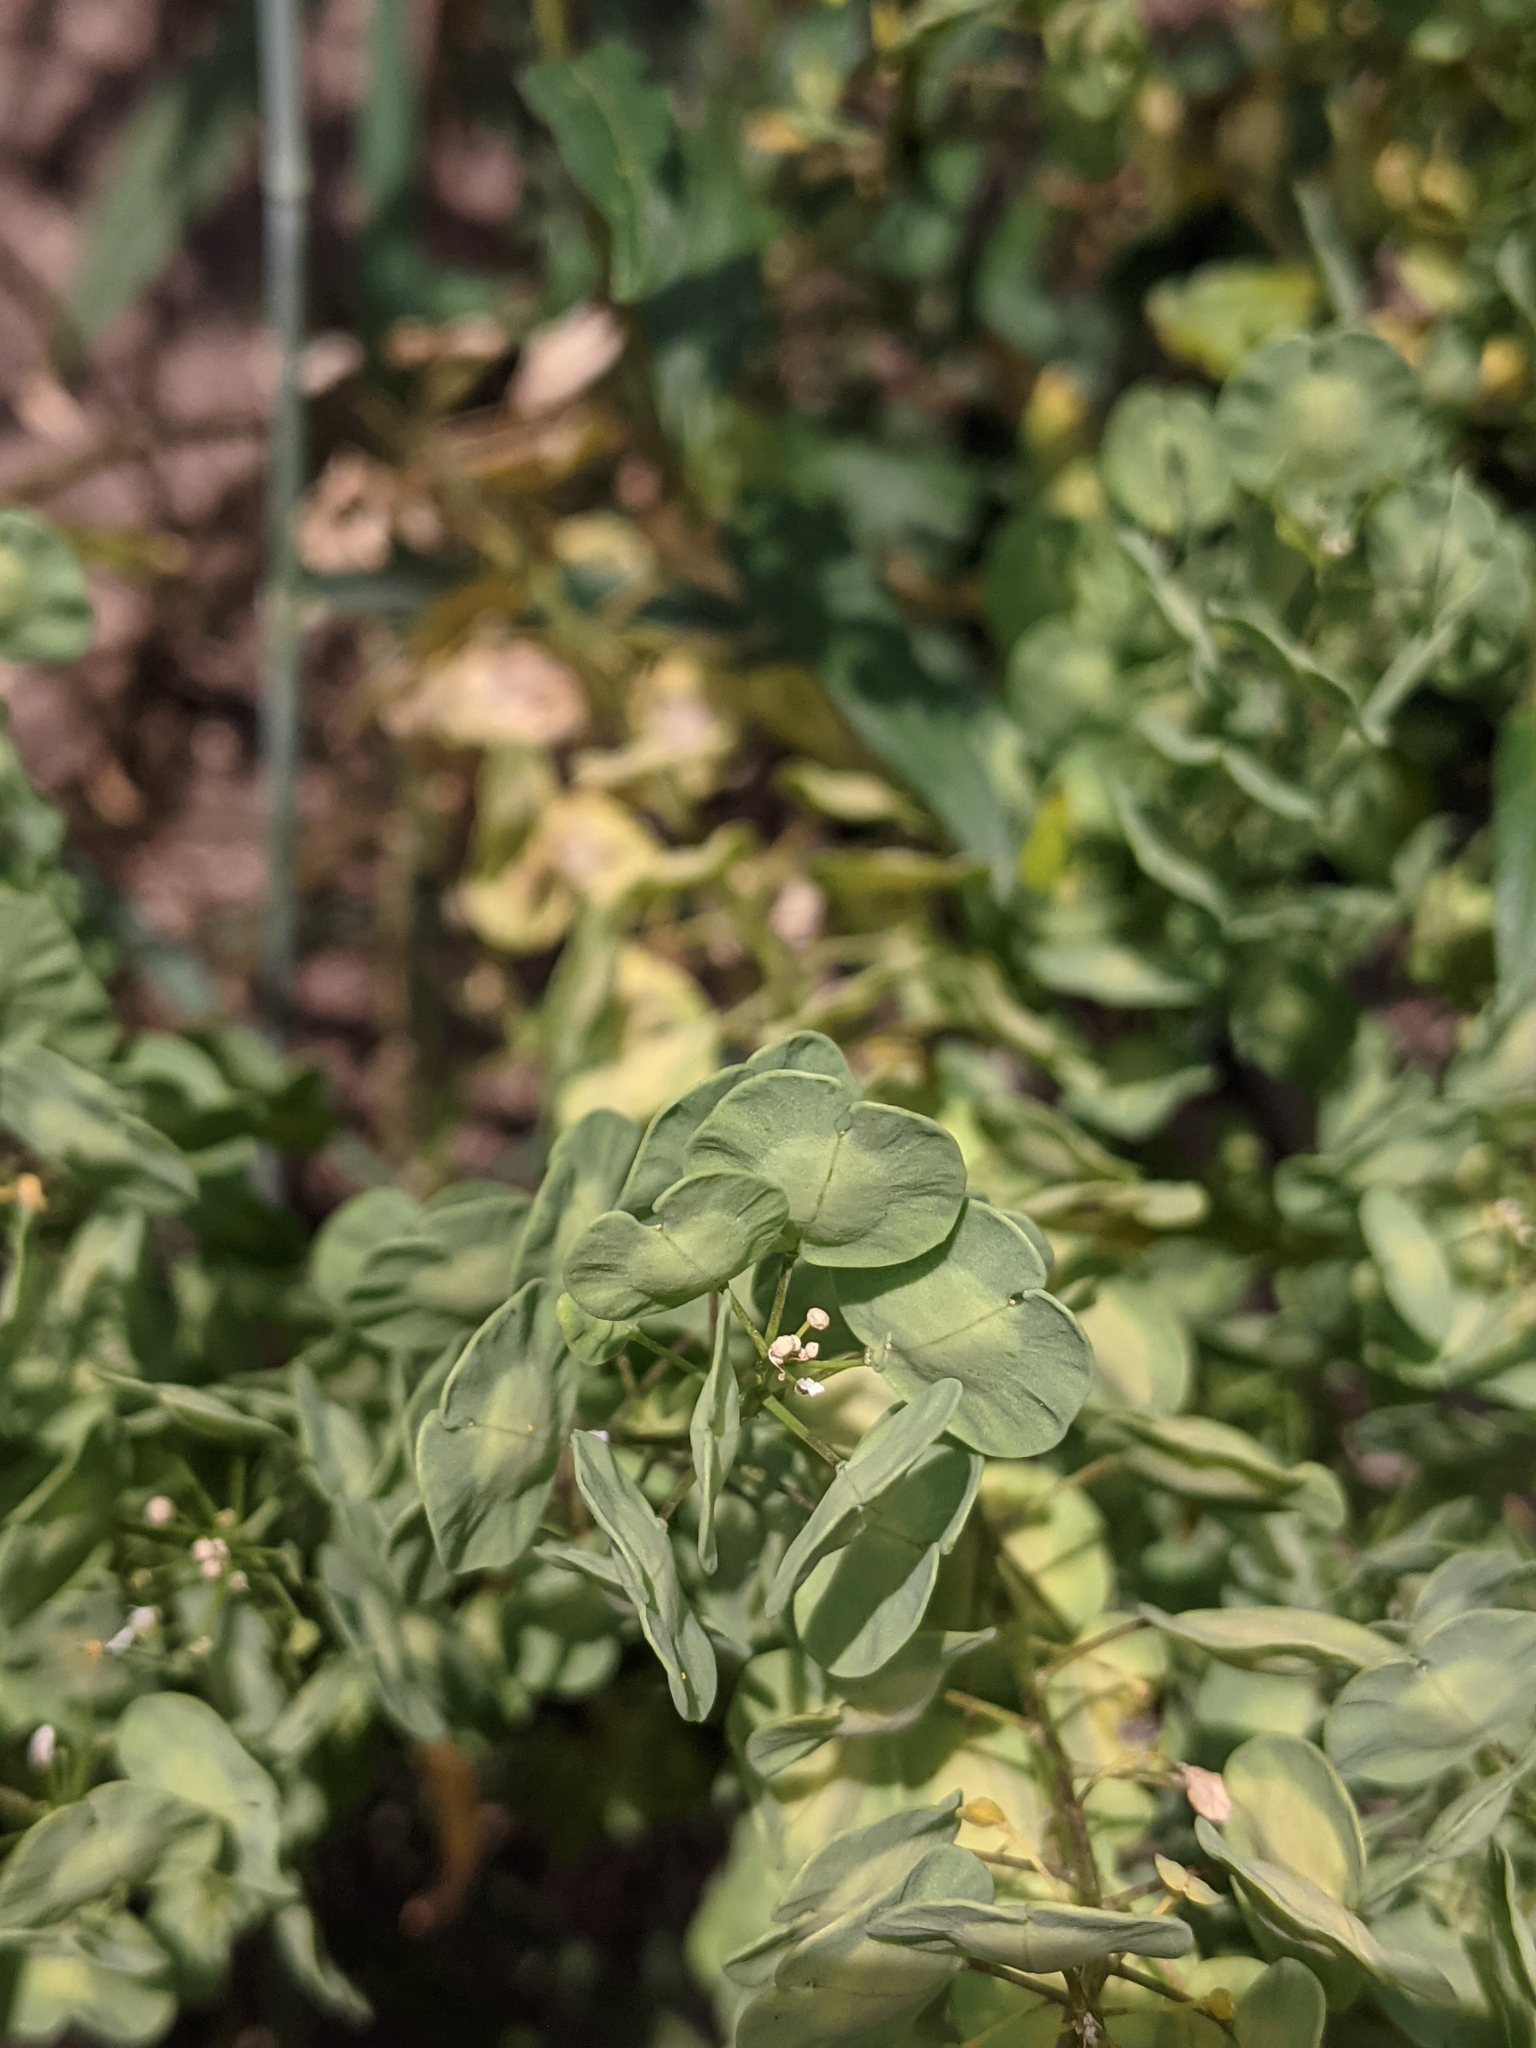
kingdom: Plantae
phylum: Tracheophyta
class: Magnoliopsida
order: Brassicales
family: Brassicaceae
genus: Thlaspi
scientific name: Thlaspi arvense
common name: Field pennycress
